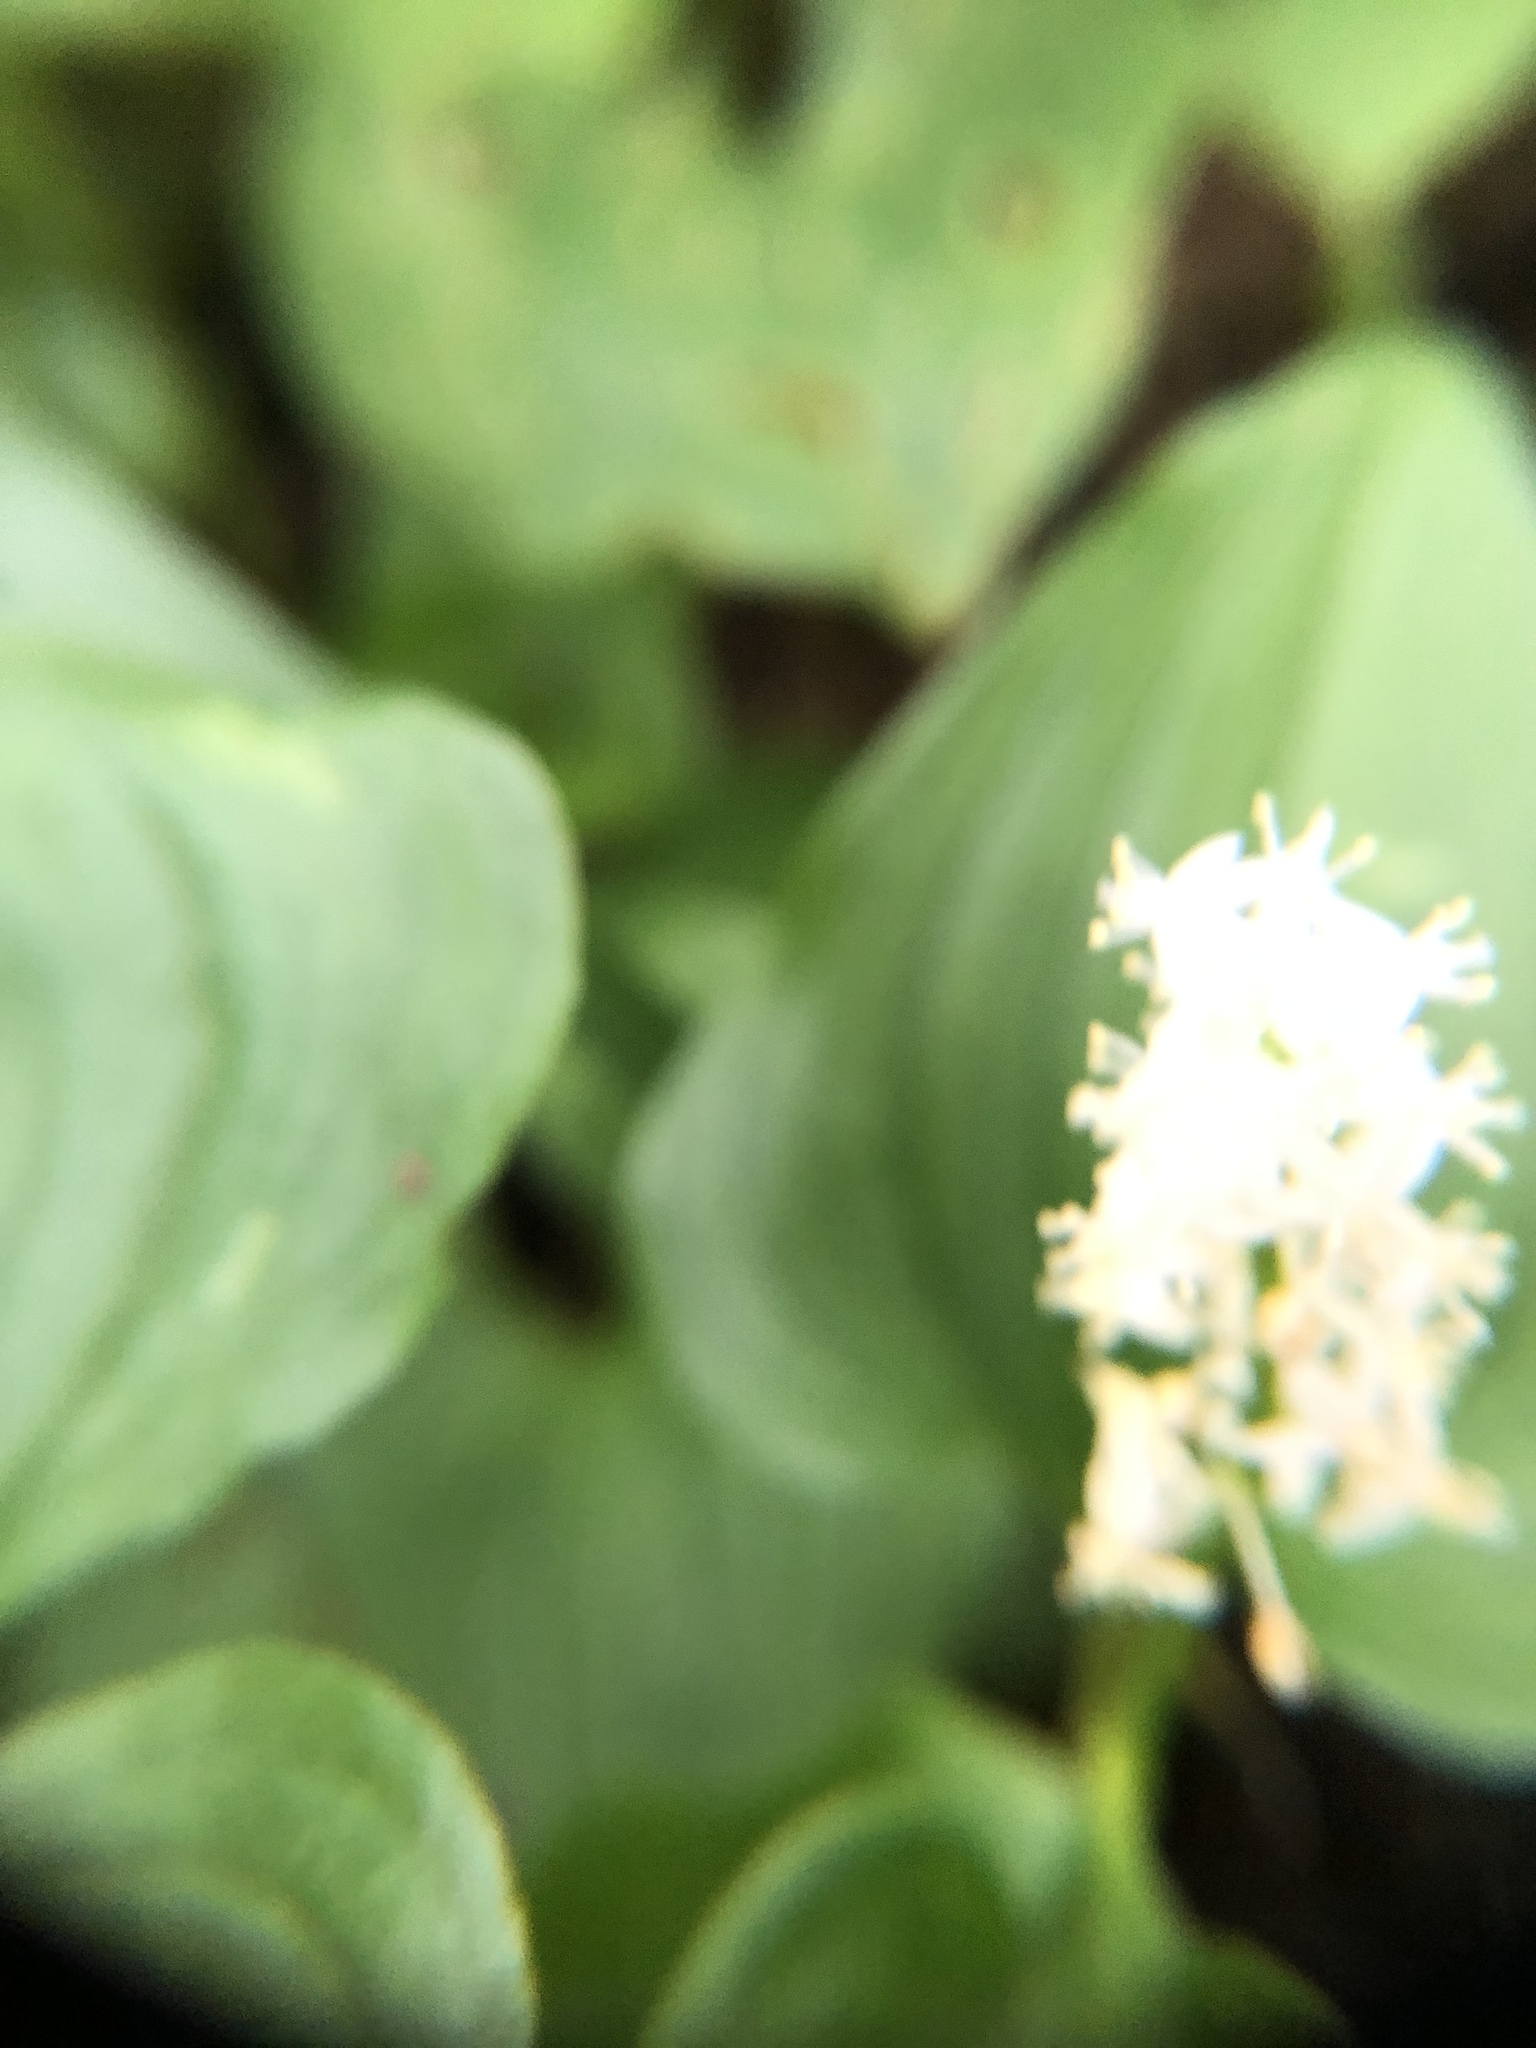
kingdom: Plantae
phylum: Tracheophyta
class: Liliopsida
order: Asparagales
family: Asparagaceae
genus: Maianthemum
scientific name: Maianthemum dilatatum
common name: False lily-of-the-valley
